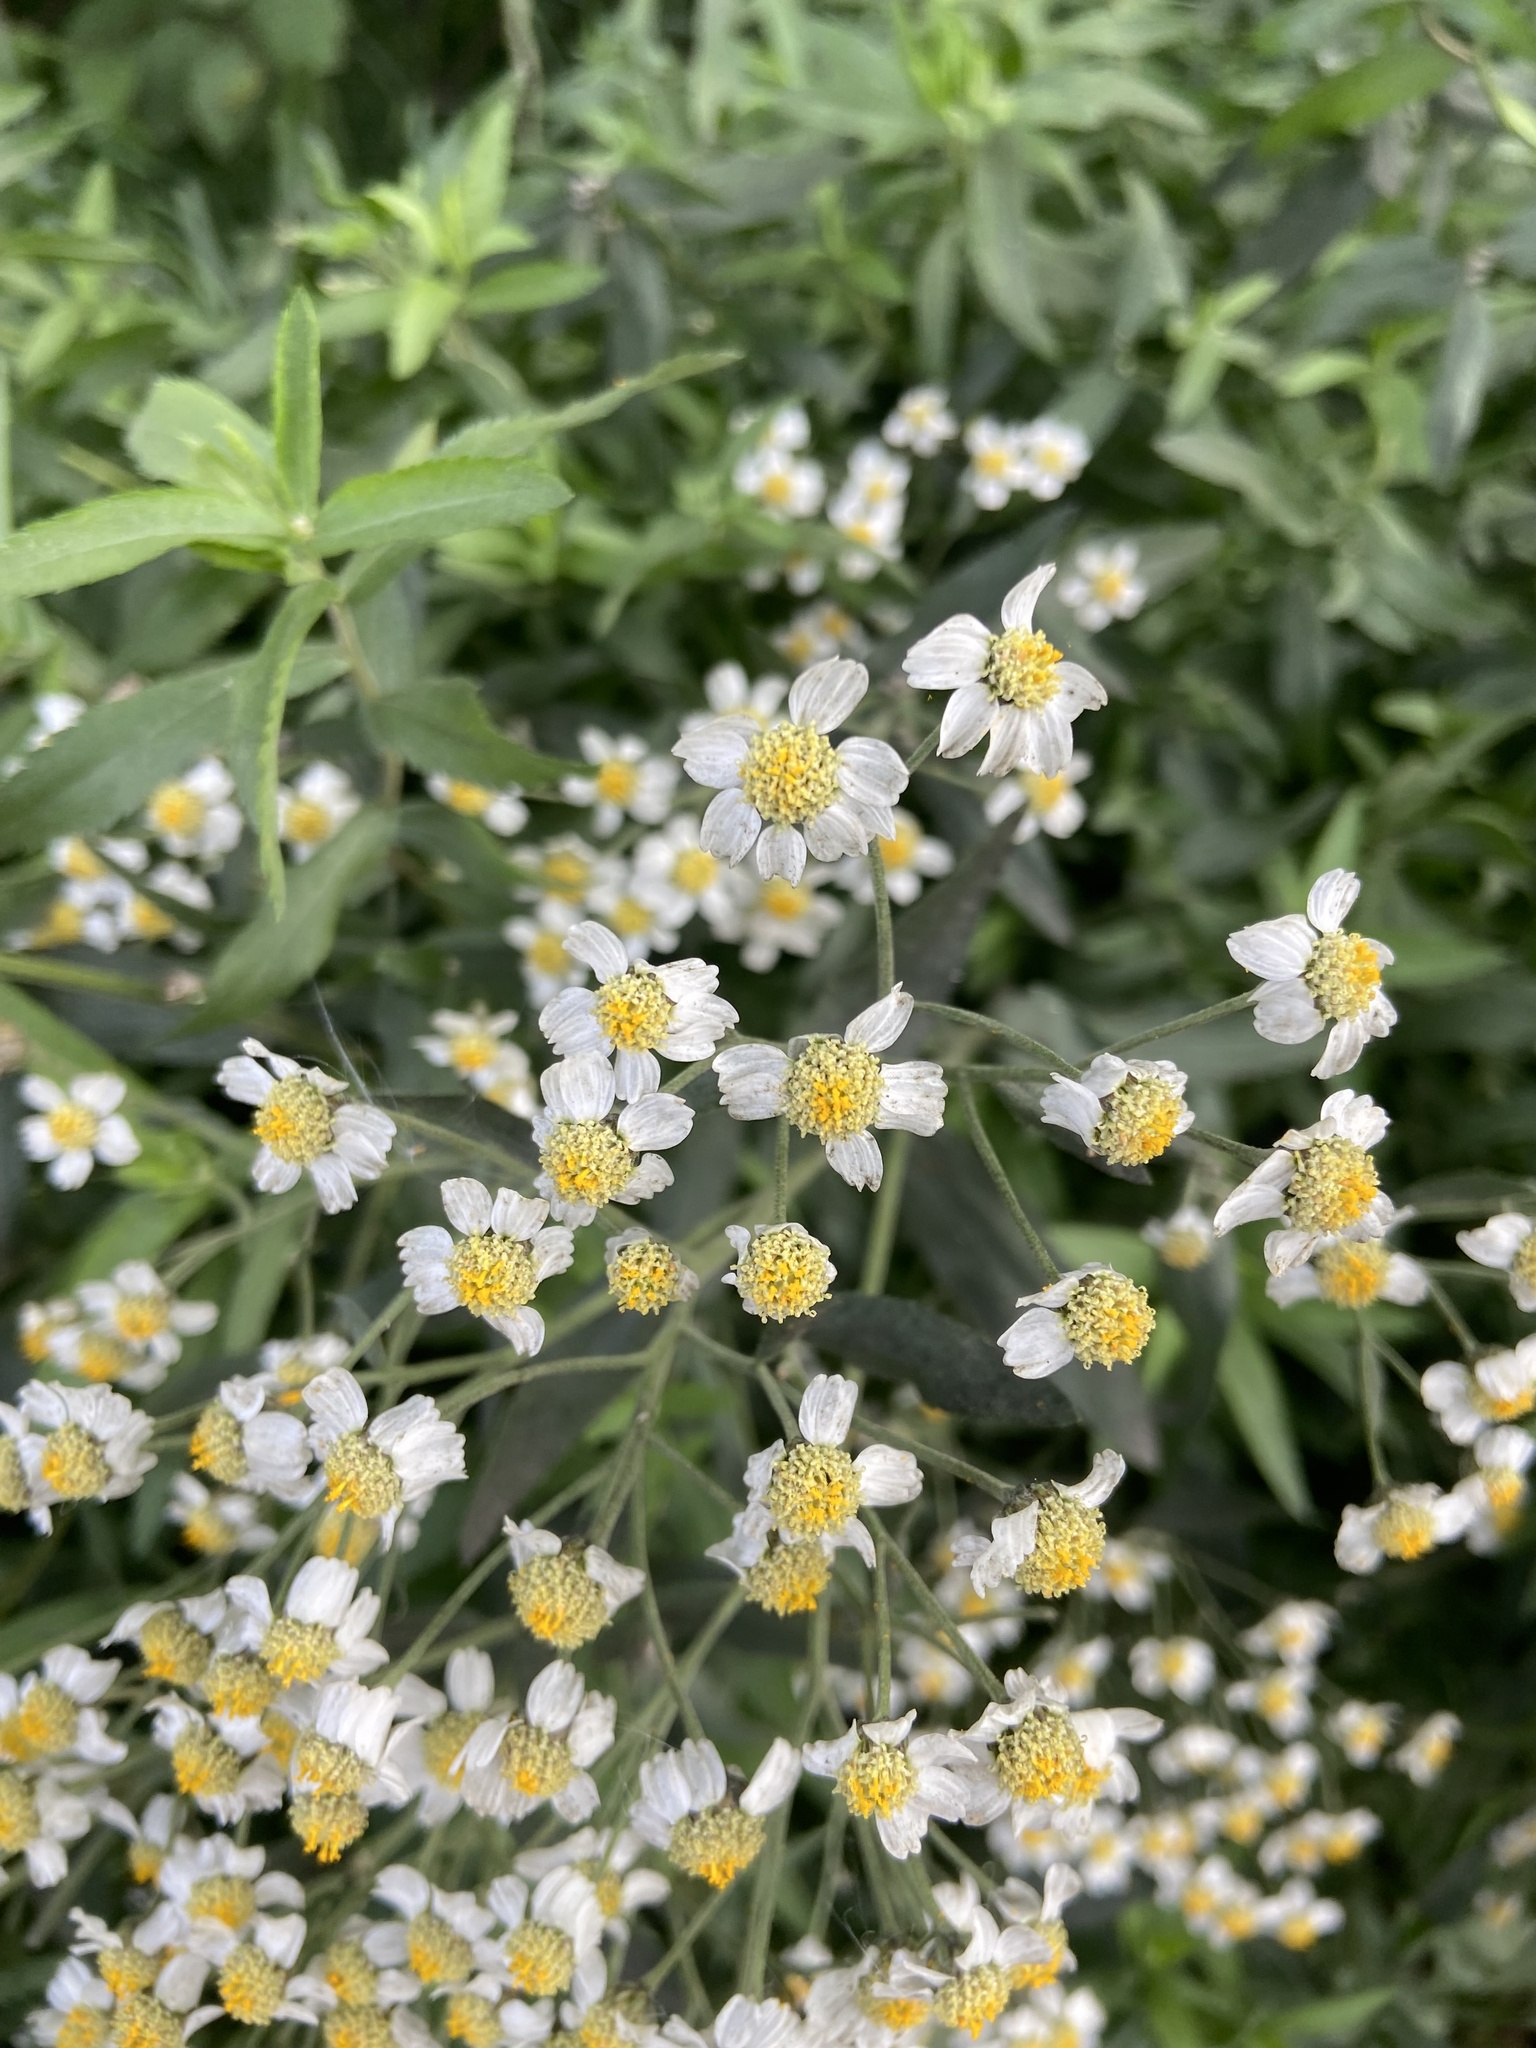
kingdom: Plantae
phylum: Tracheophyta
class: Magnoliopsida
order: Asterales
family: Asteraceae
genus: Achillea
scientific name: Achillea salicifolia
